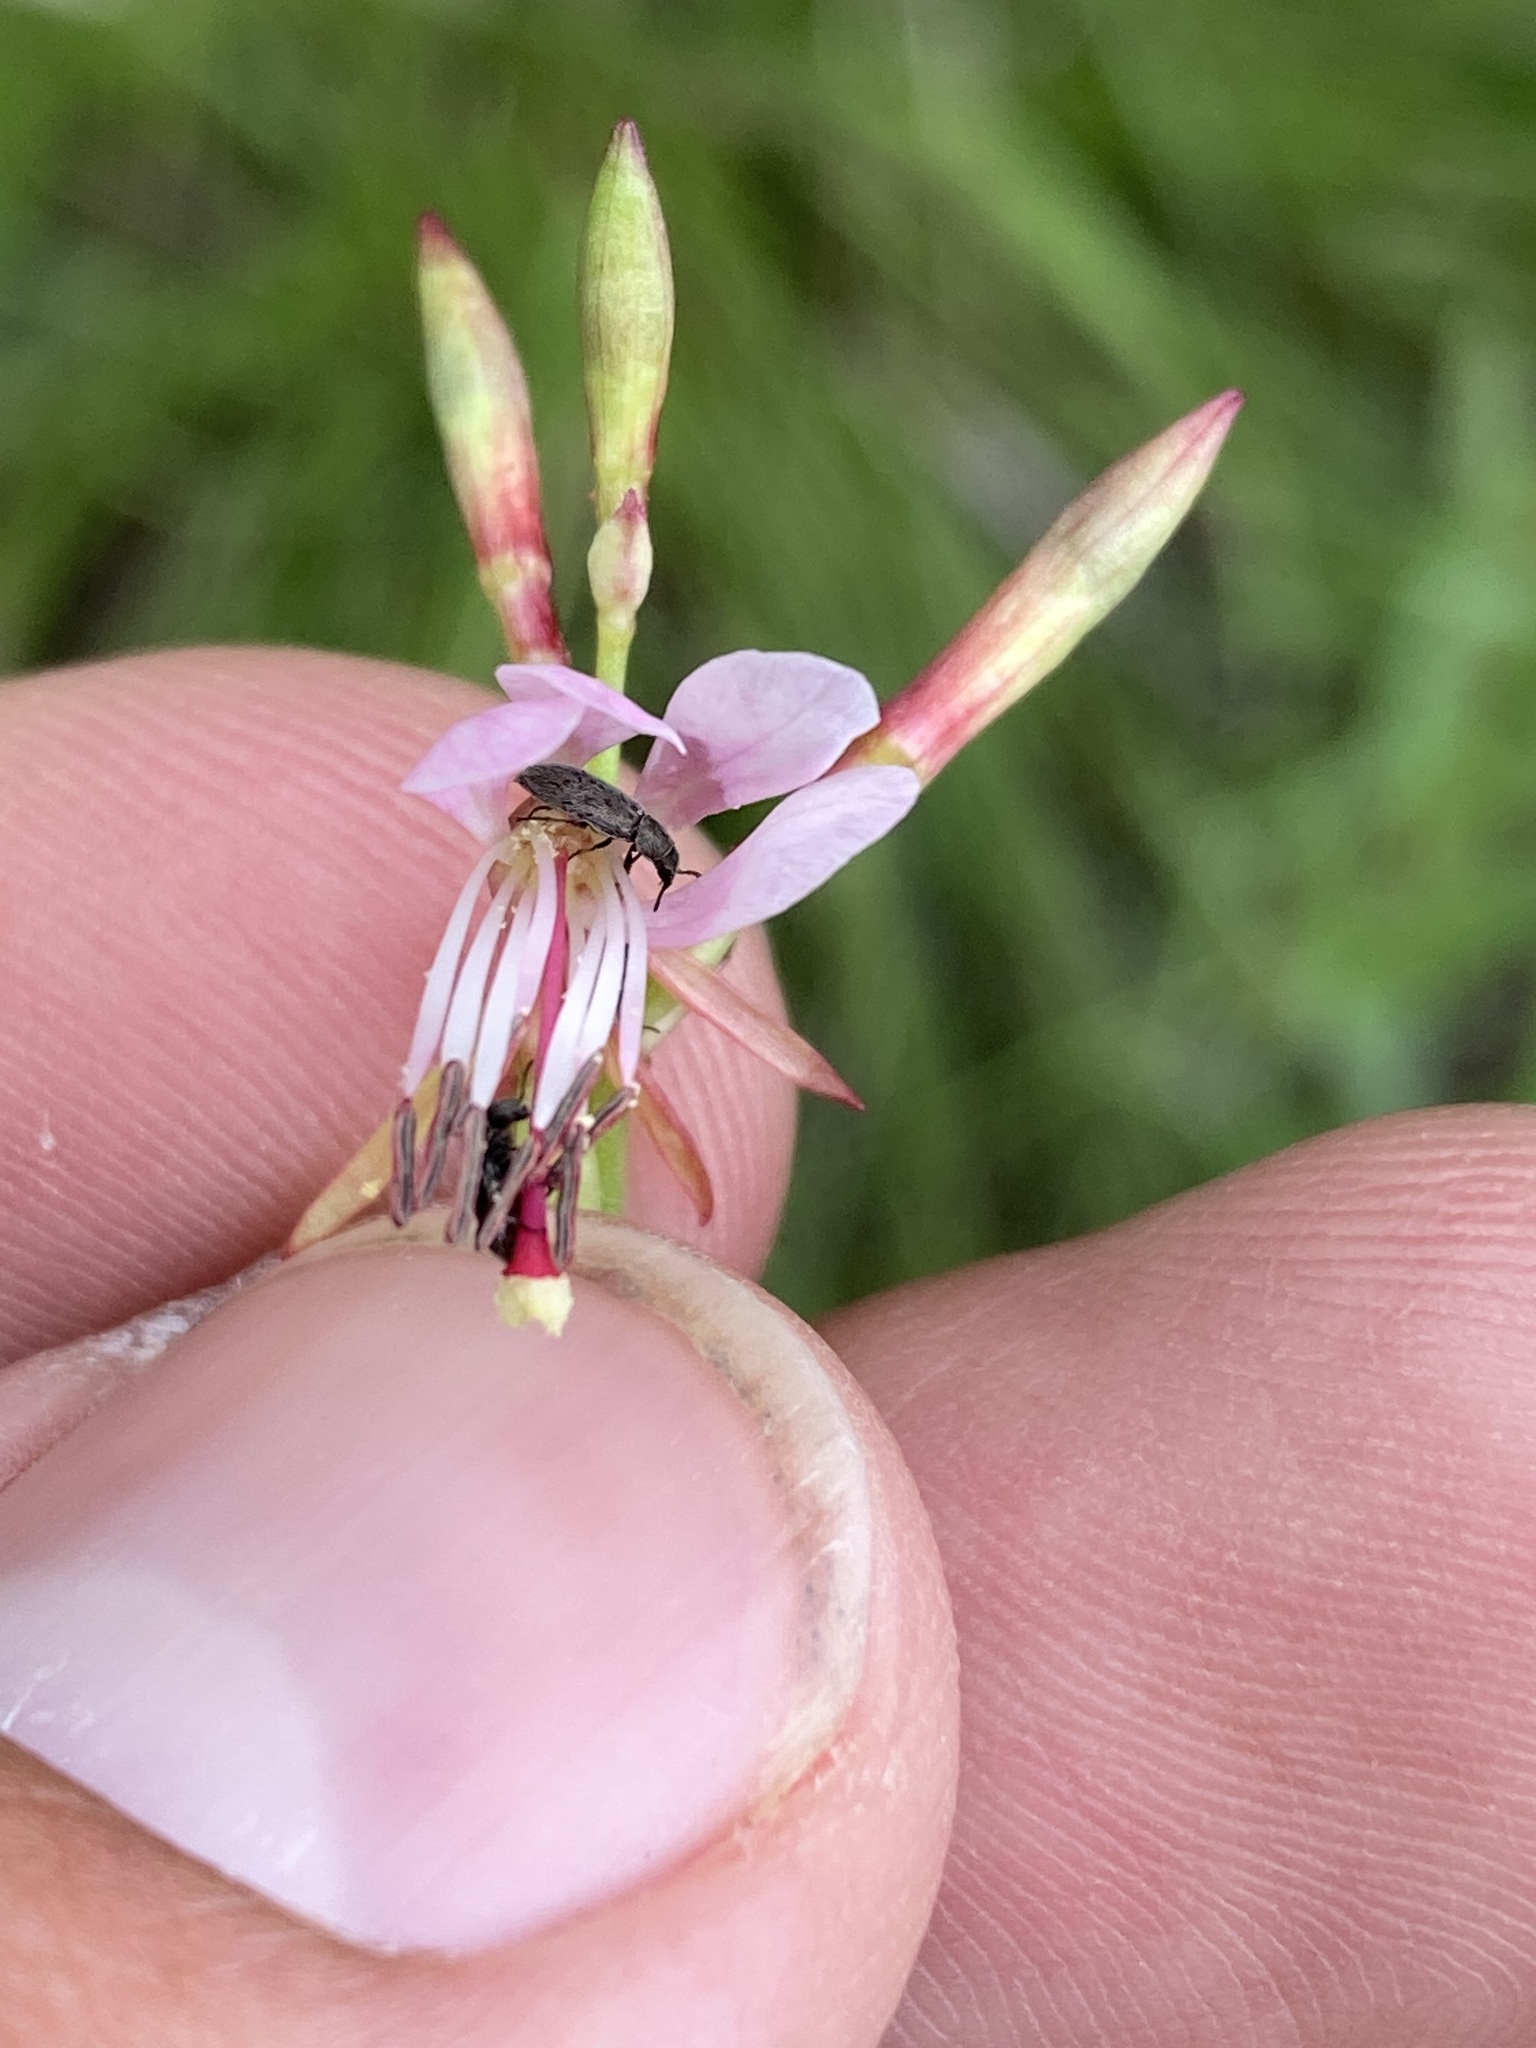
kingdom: Plantae
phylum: Tracheophyta
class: Magnoliopsida
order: Myrtales
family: Onagraceae
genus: Oenothera
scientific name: Oenothera podocarpa
